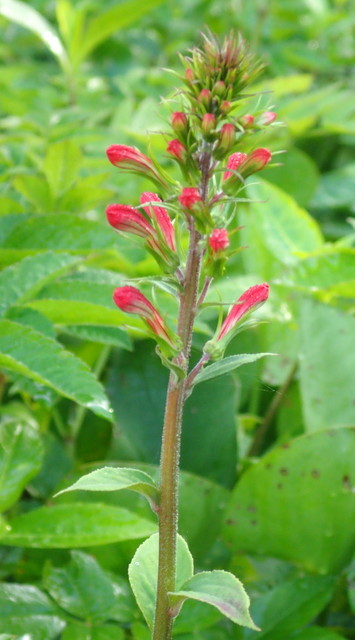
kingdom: Plantae
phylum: Tracheophyta
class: Magnoliopsida
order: Asterales
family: Campanulaceae
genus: Lobelia
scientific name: Lobelia cardinalis
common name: Cardinal flower
